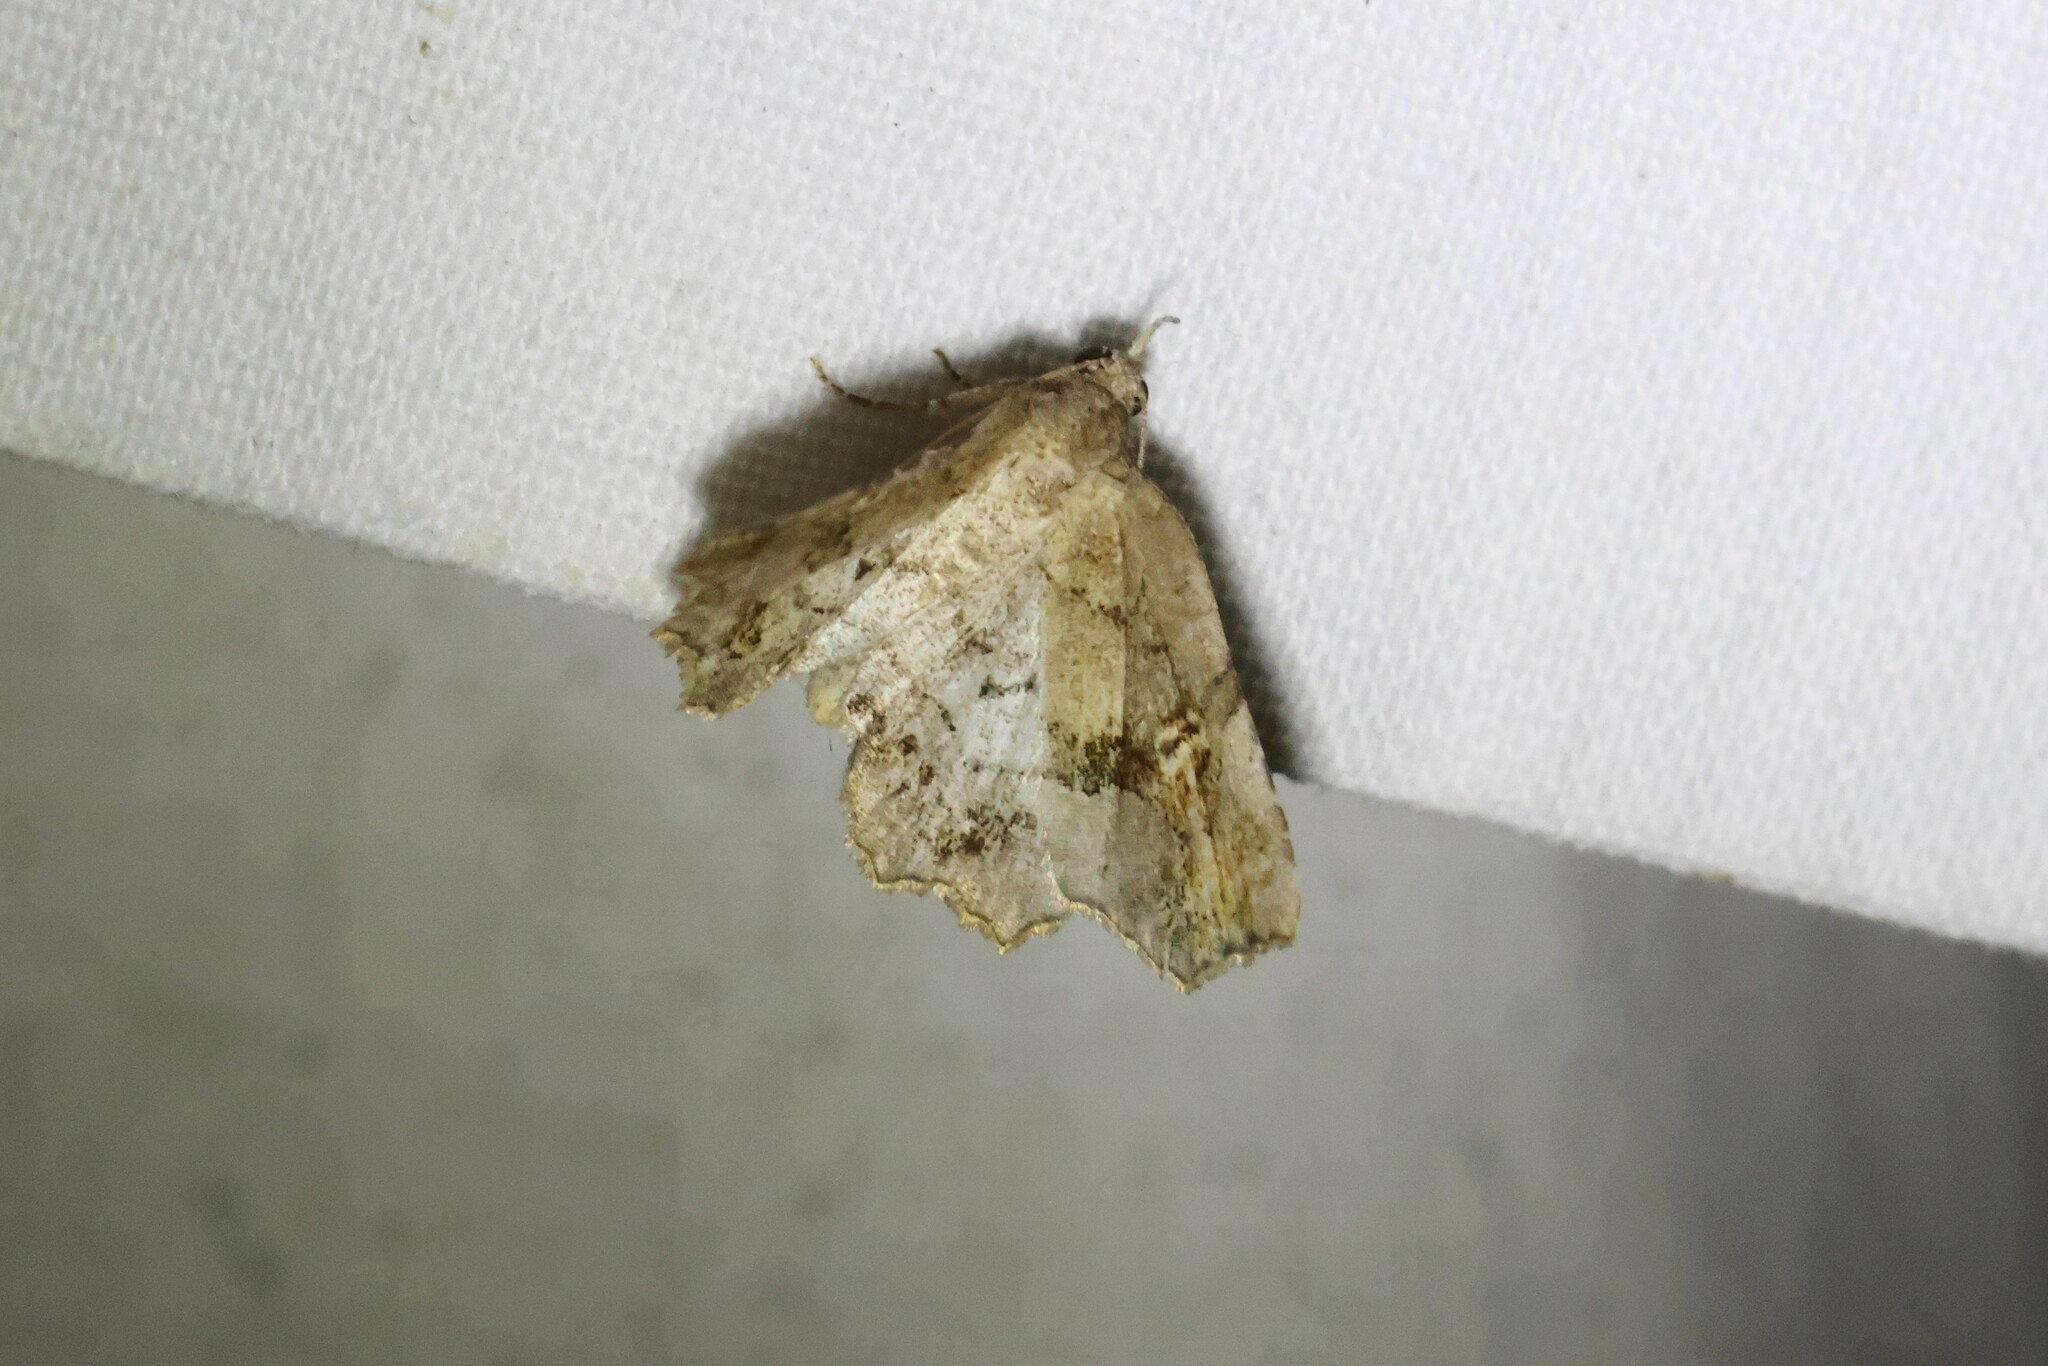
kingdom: Animalia
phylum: Arthropoda
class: Insecta
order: Lepidoptera
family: Erebidae
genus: Pangrapta
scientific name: Pangrapta decoralis
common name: Decorated owlet
